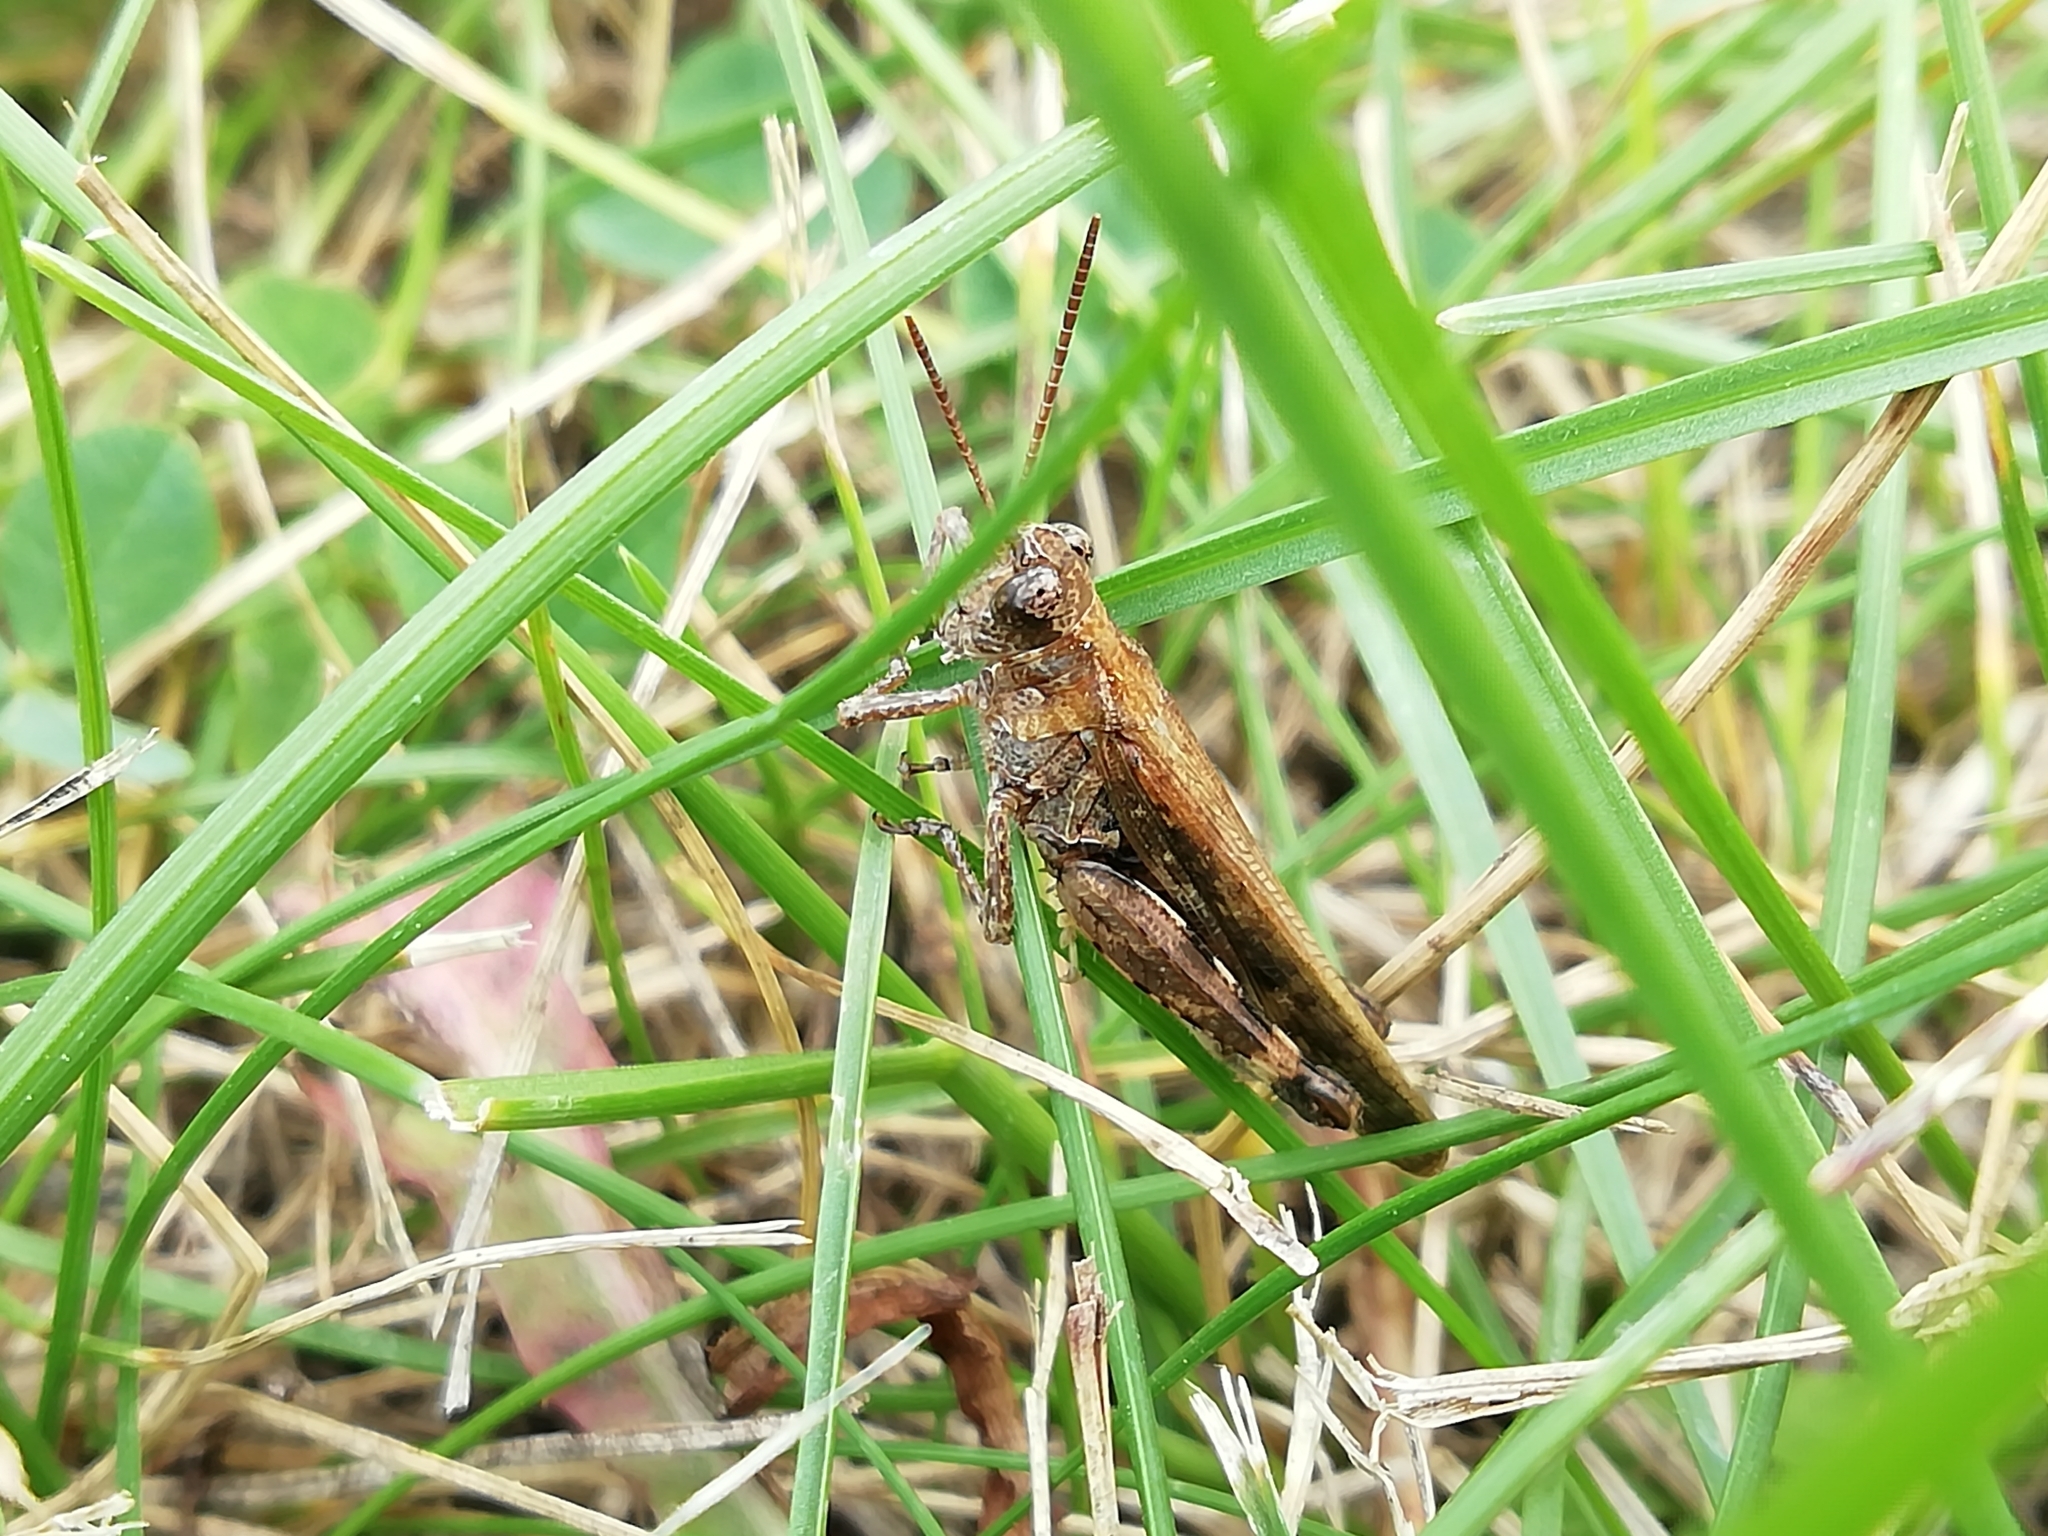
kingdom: Animalia
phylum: Arthropoda
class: Insecta
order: Orthoptera
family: Acrididae
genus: Aiolopus
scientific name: Aiolopus thalassinus
